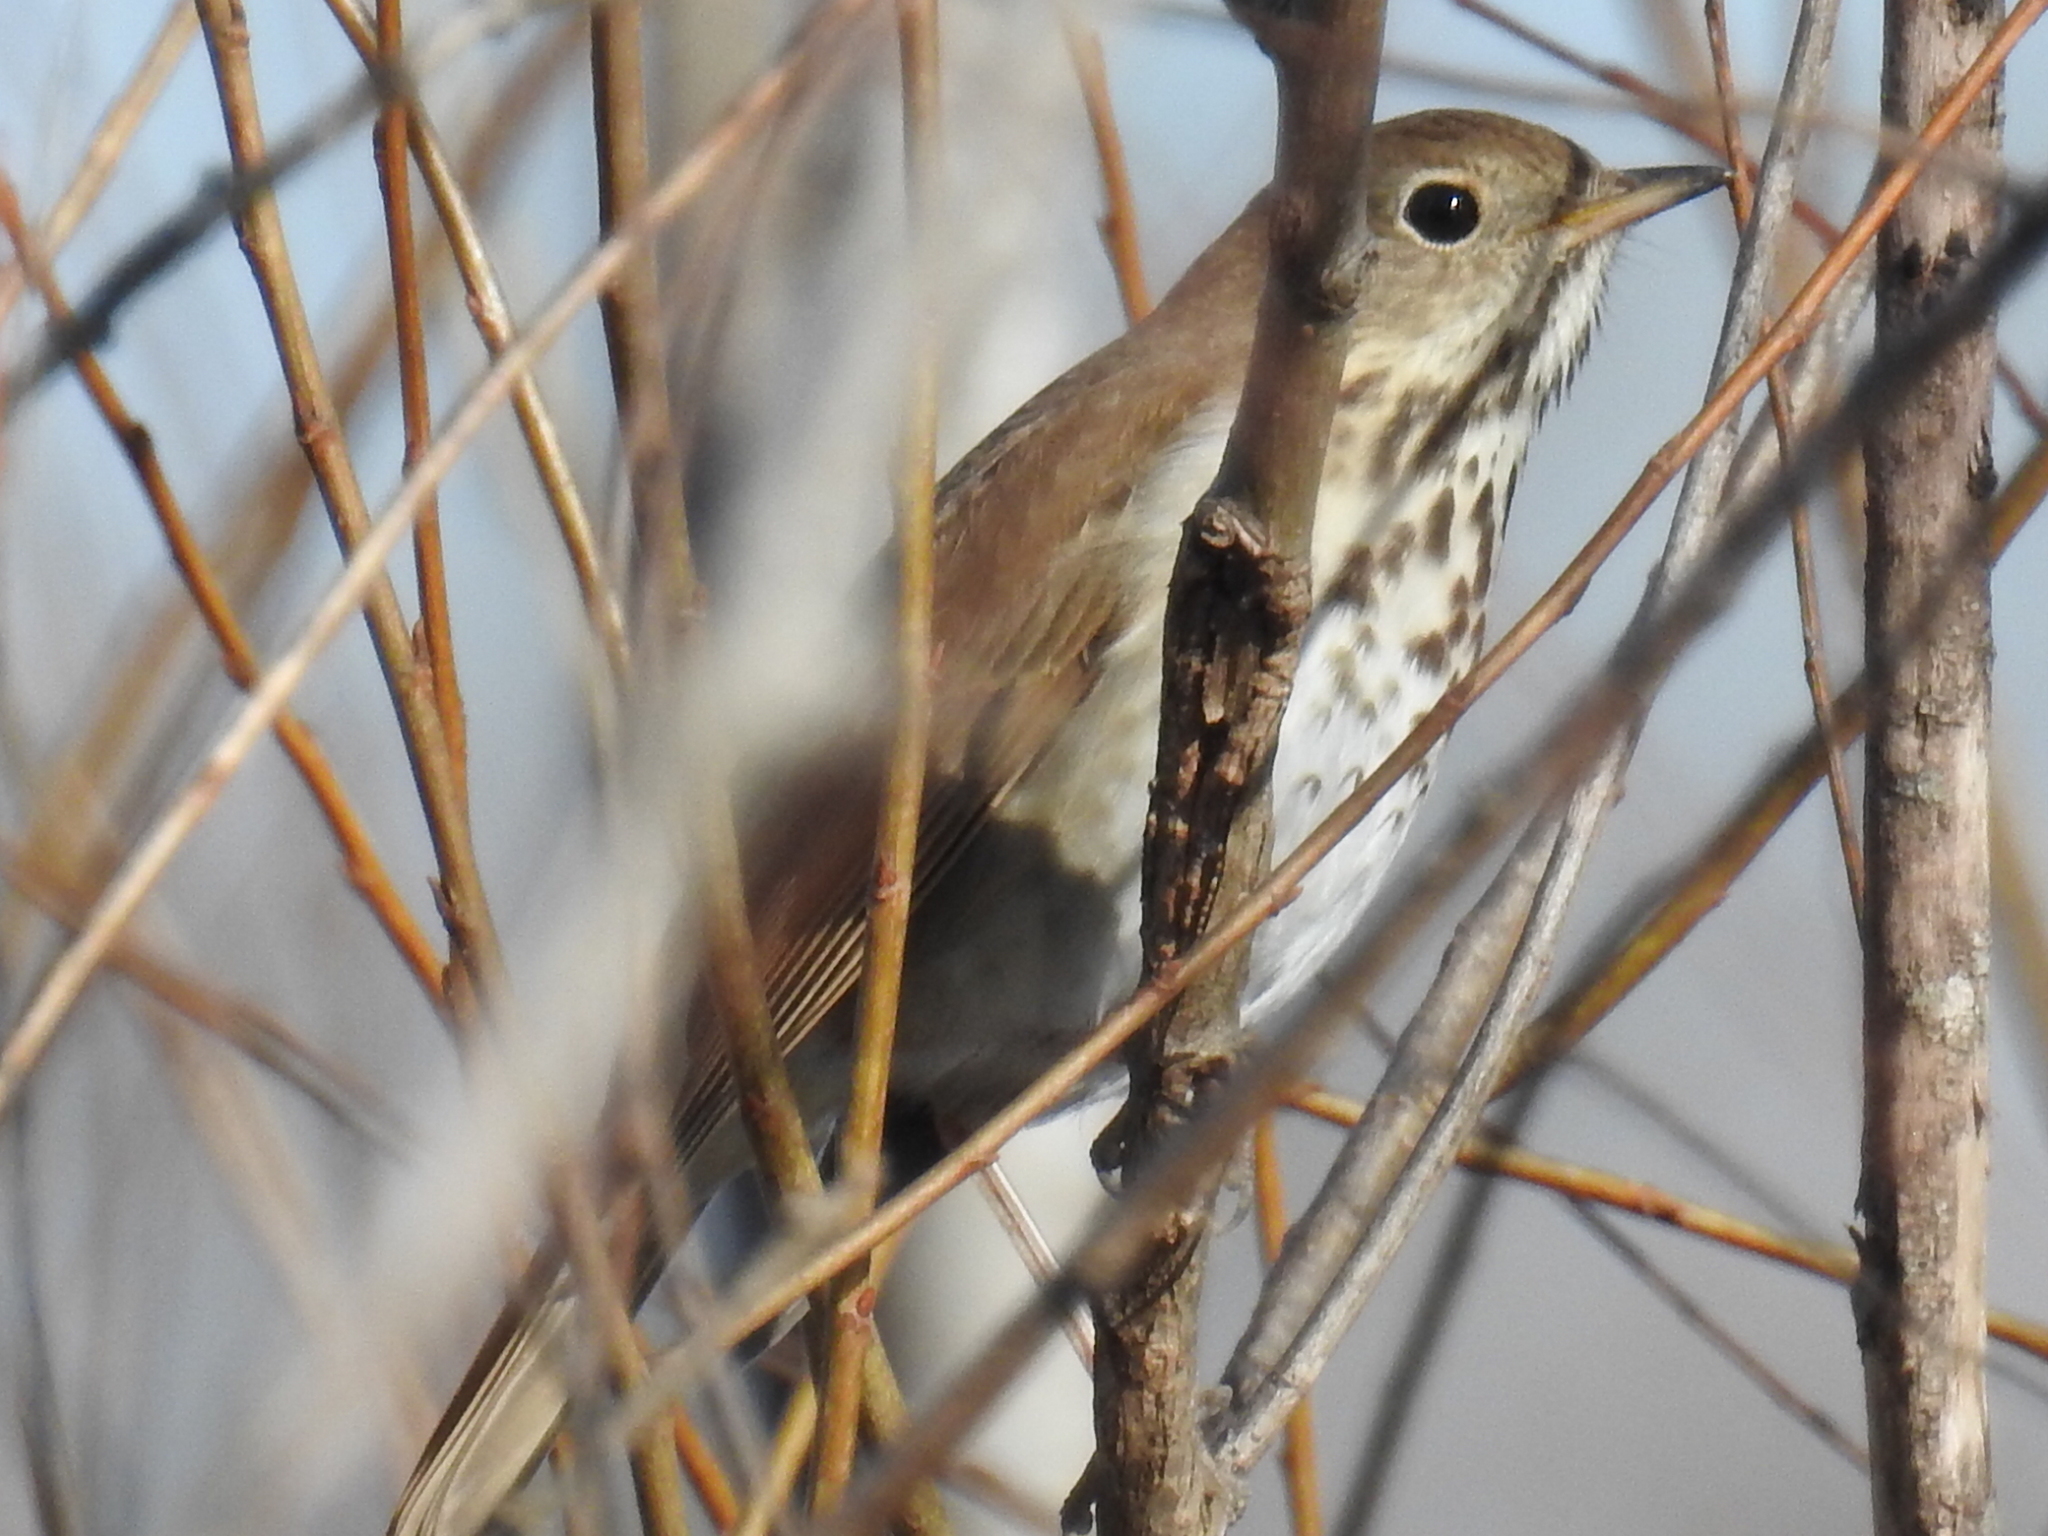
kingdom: Animalia
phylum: Chordata
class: Aves
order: Passeriformes
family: Turdidae
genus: Catharus
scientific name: Catharus guttatus
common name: Hermit thrush
